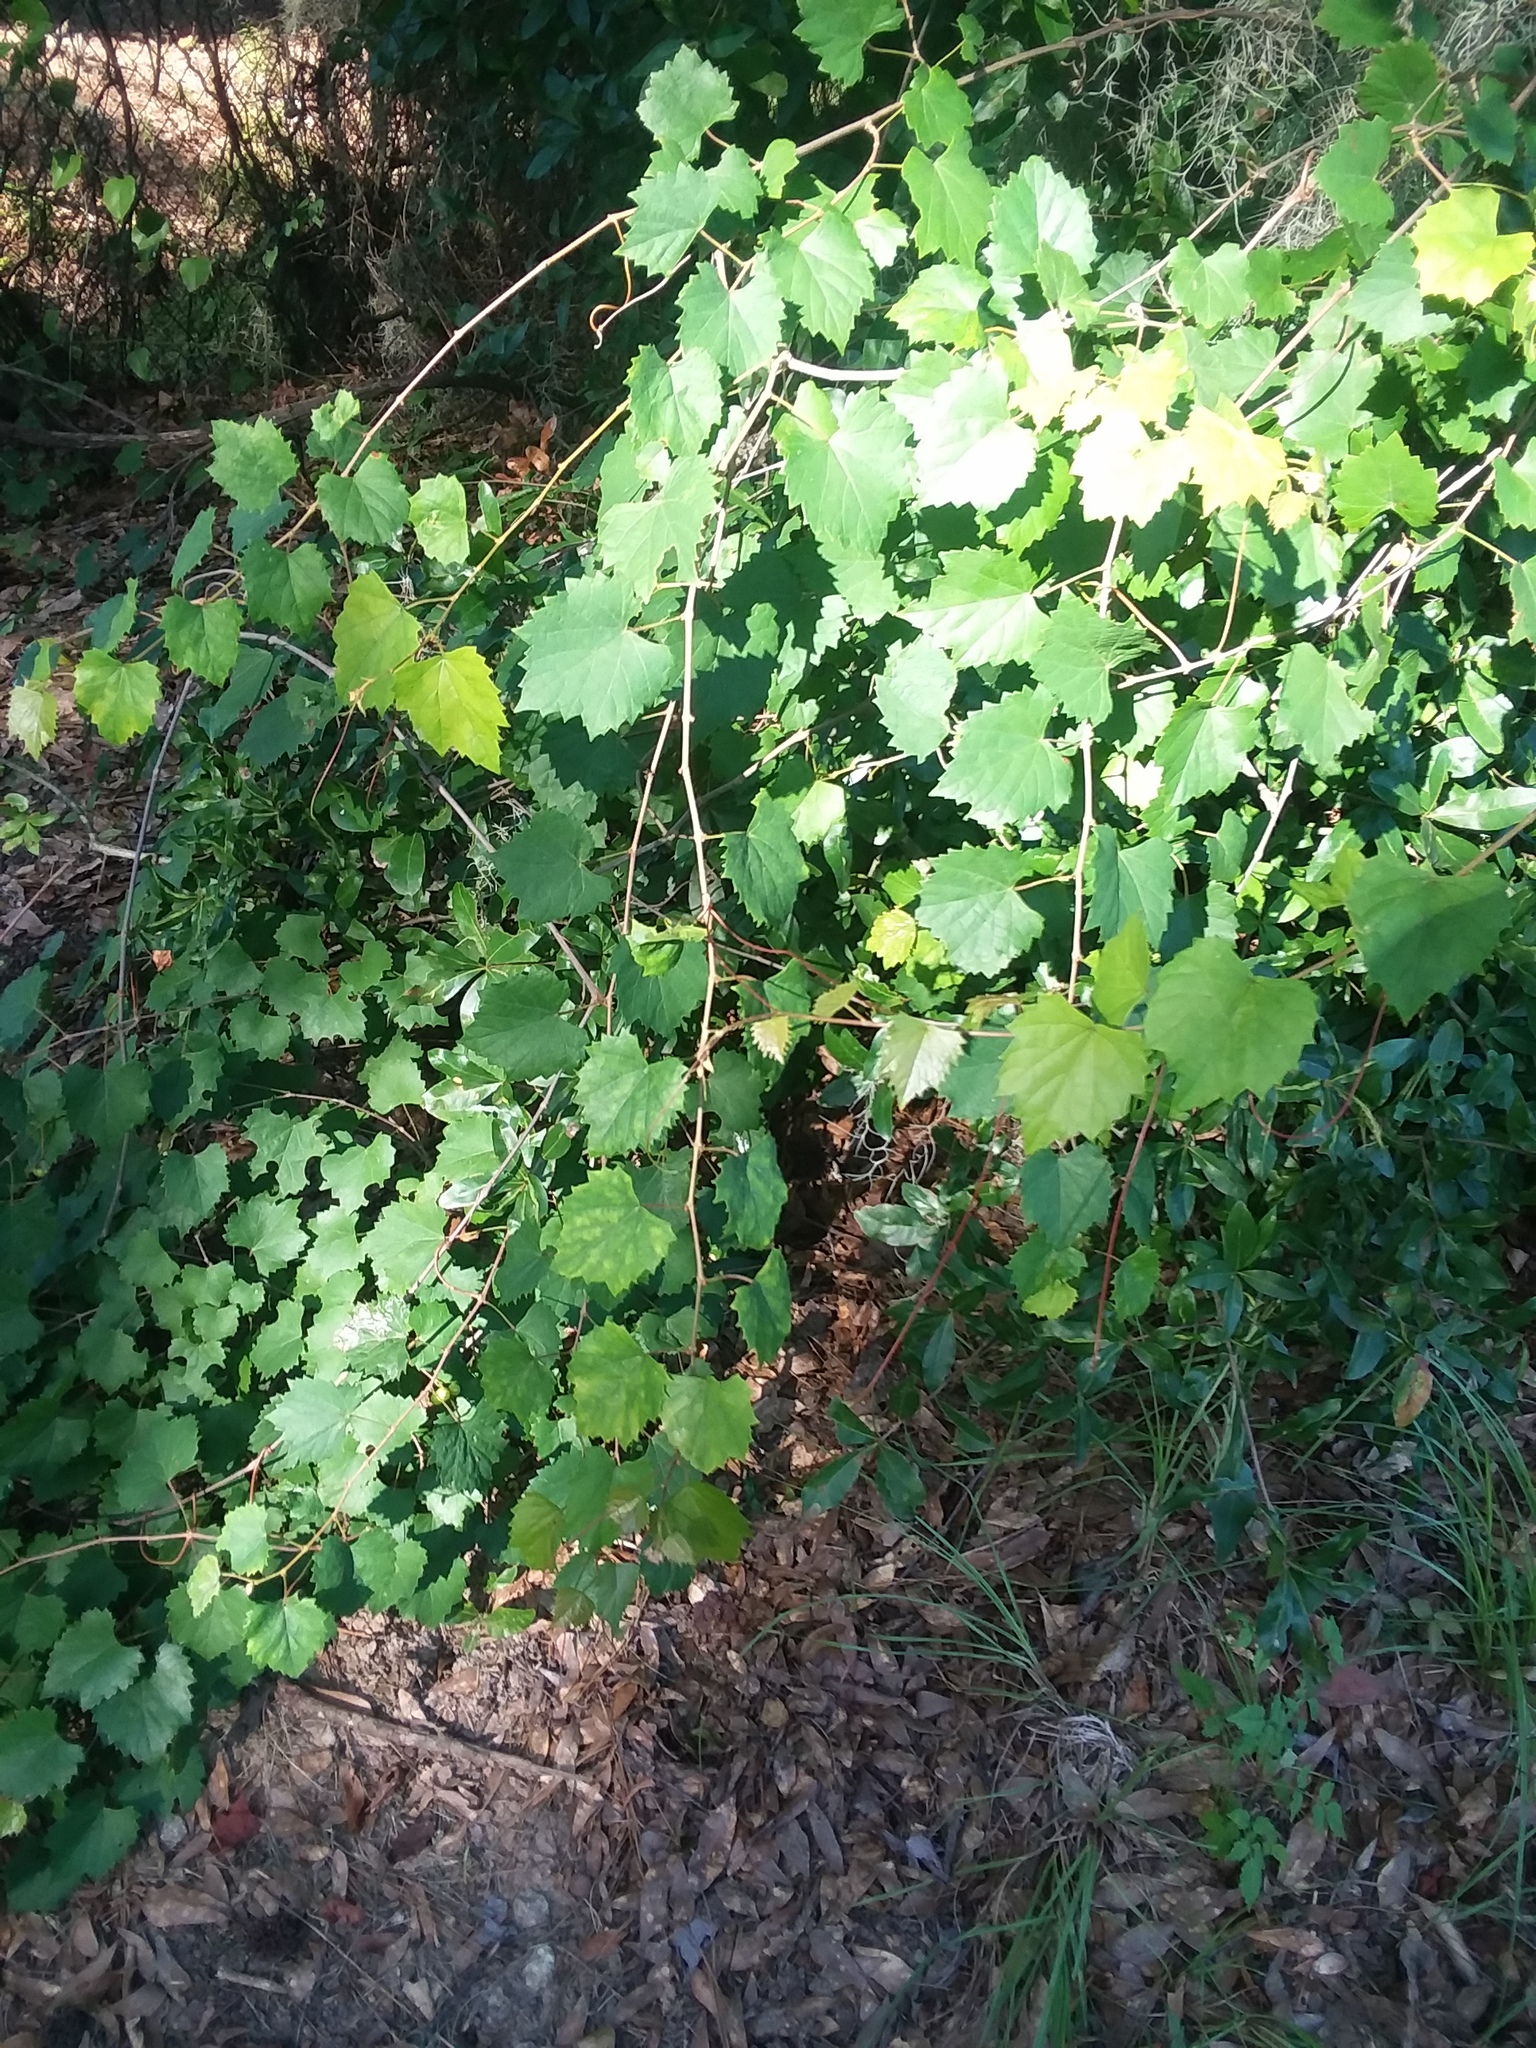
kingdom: Plantae
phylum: Tracheophyta
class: Magnoliopsida
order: Vitales
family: Vitaceae
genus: Vitis
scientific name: Vitis rotundifolia
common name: Muscadine grape
